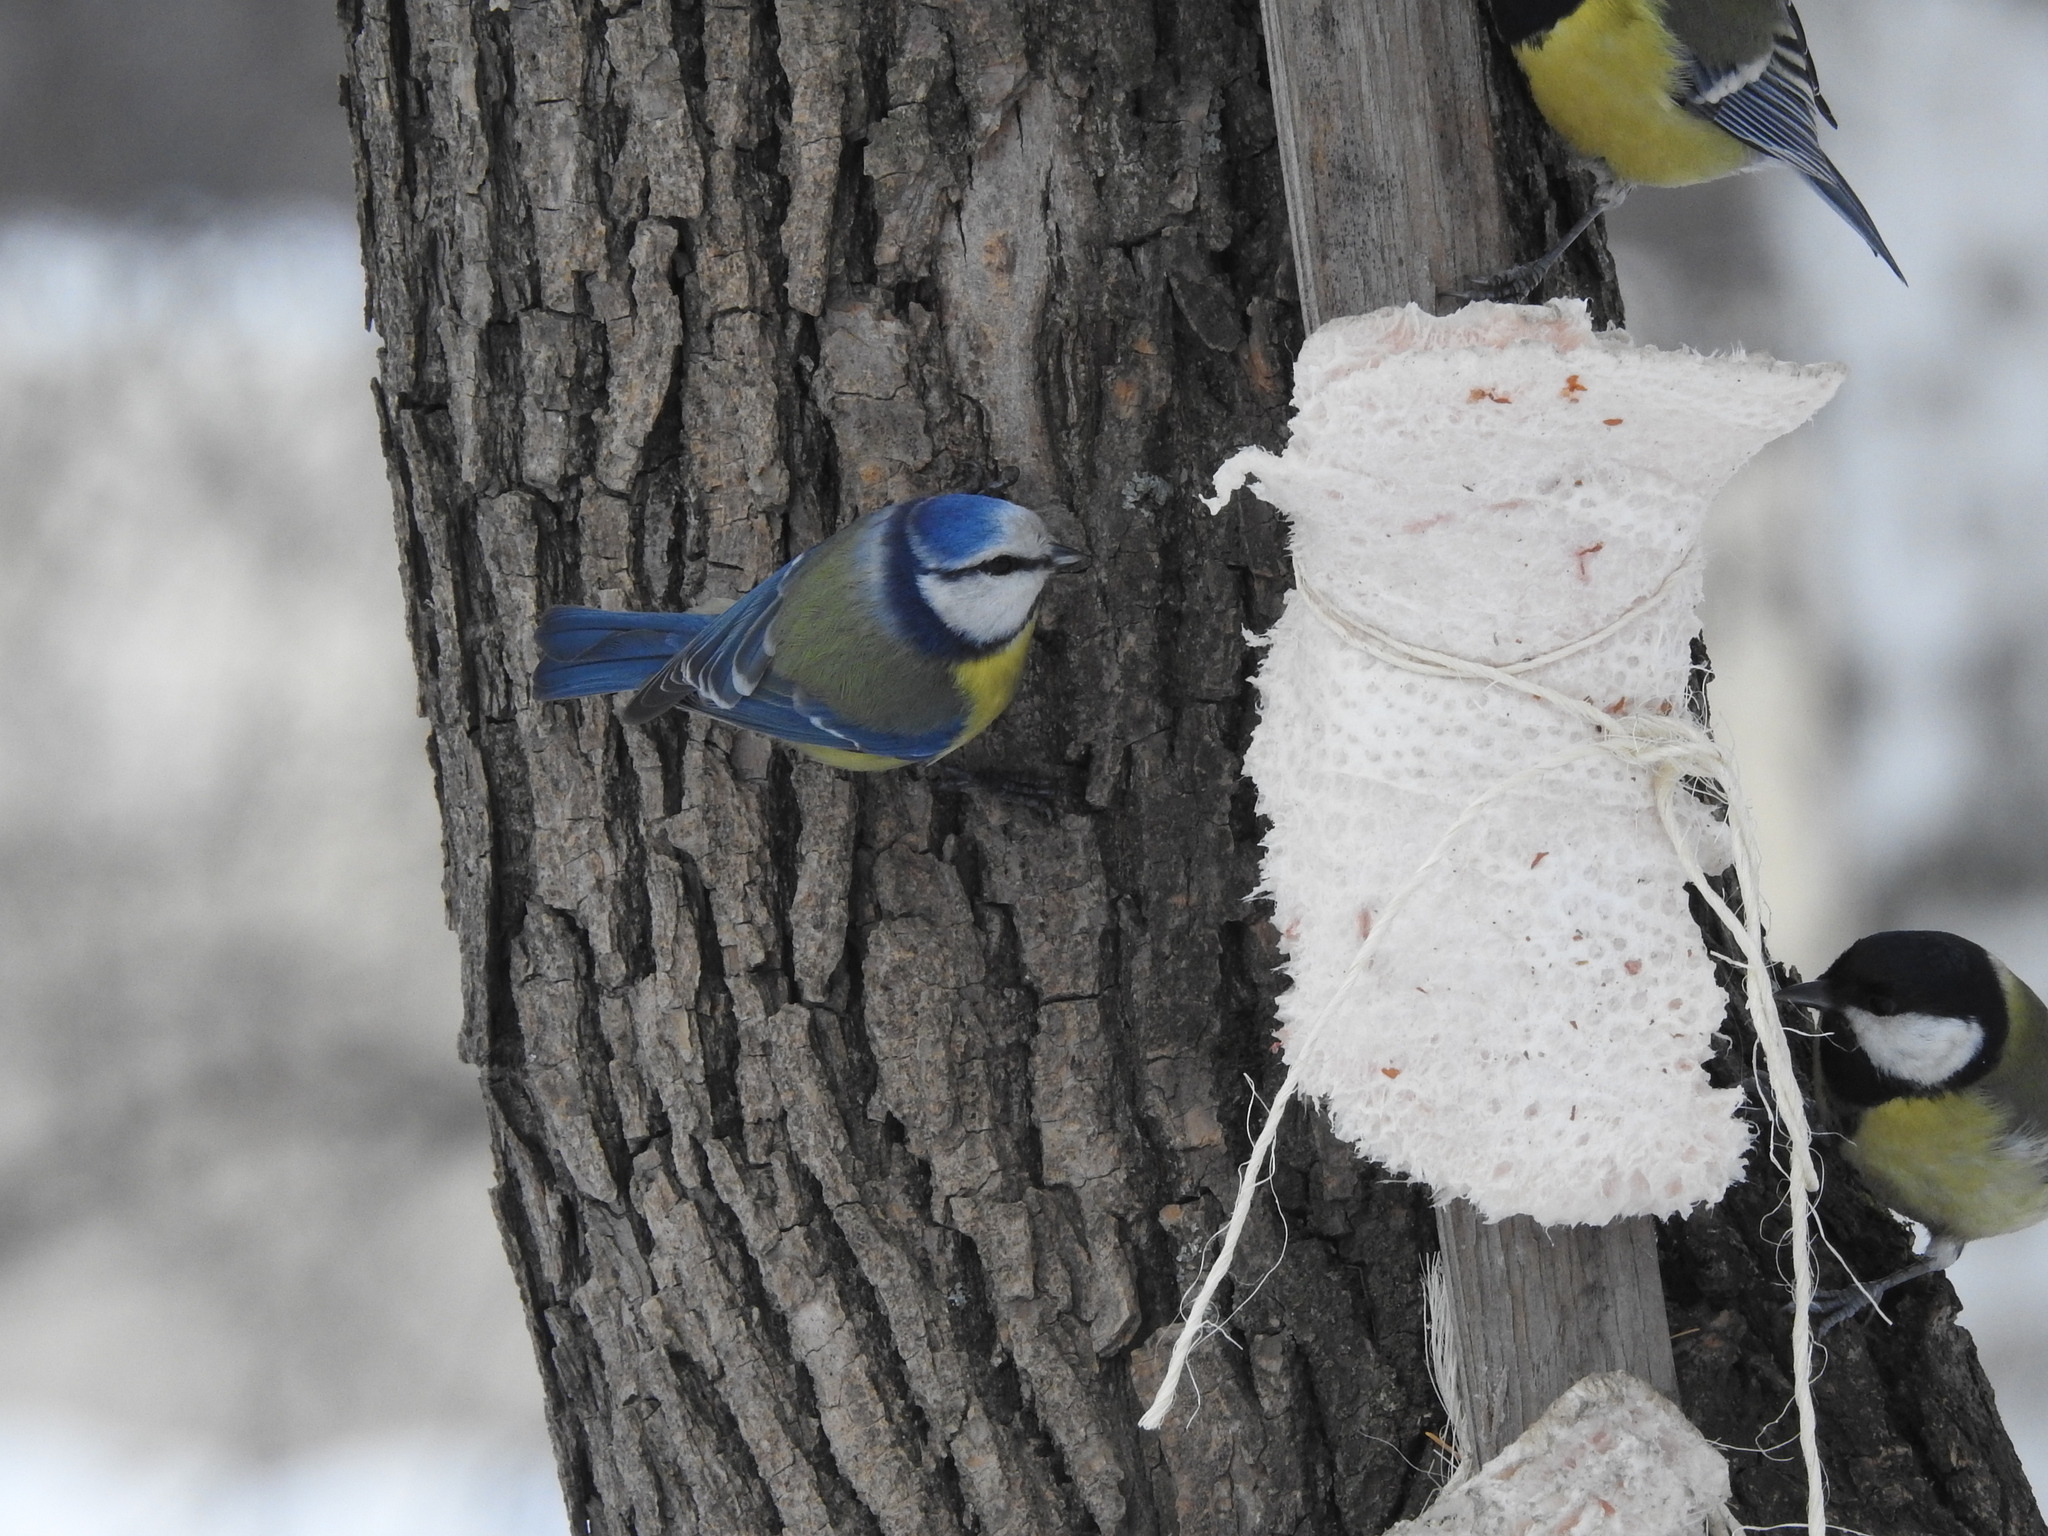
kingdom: Animalia
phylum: Chordata
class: Aves
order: Passeriformes
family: Paridae
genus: Cyanistes
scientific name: Cyanistes caeruleus
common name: Eurasian blue tit
